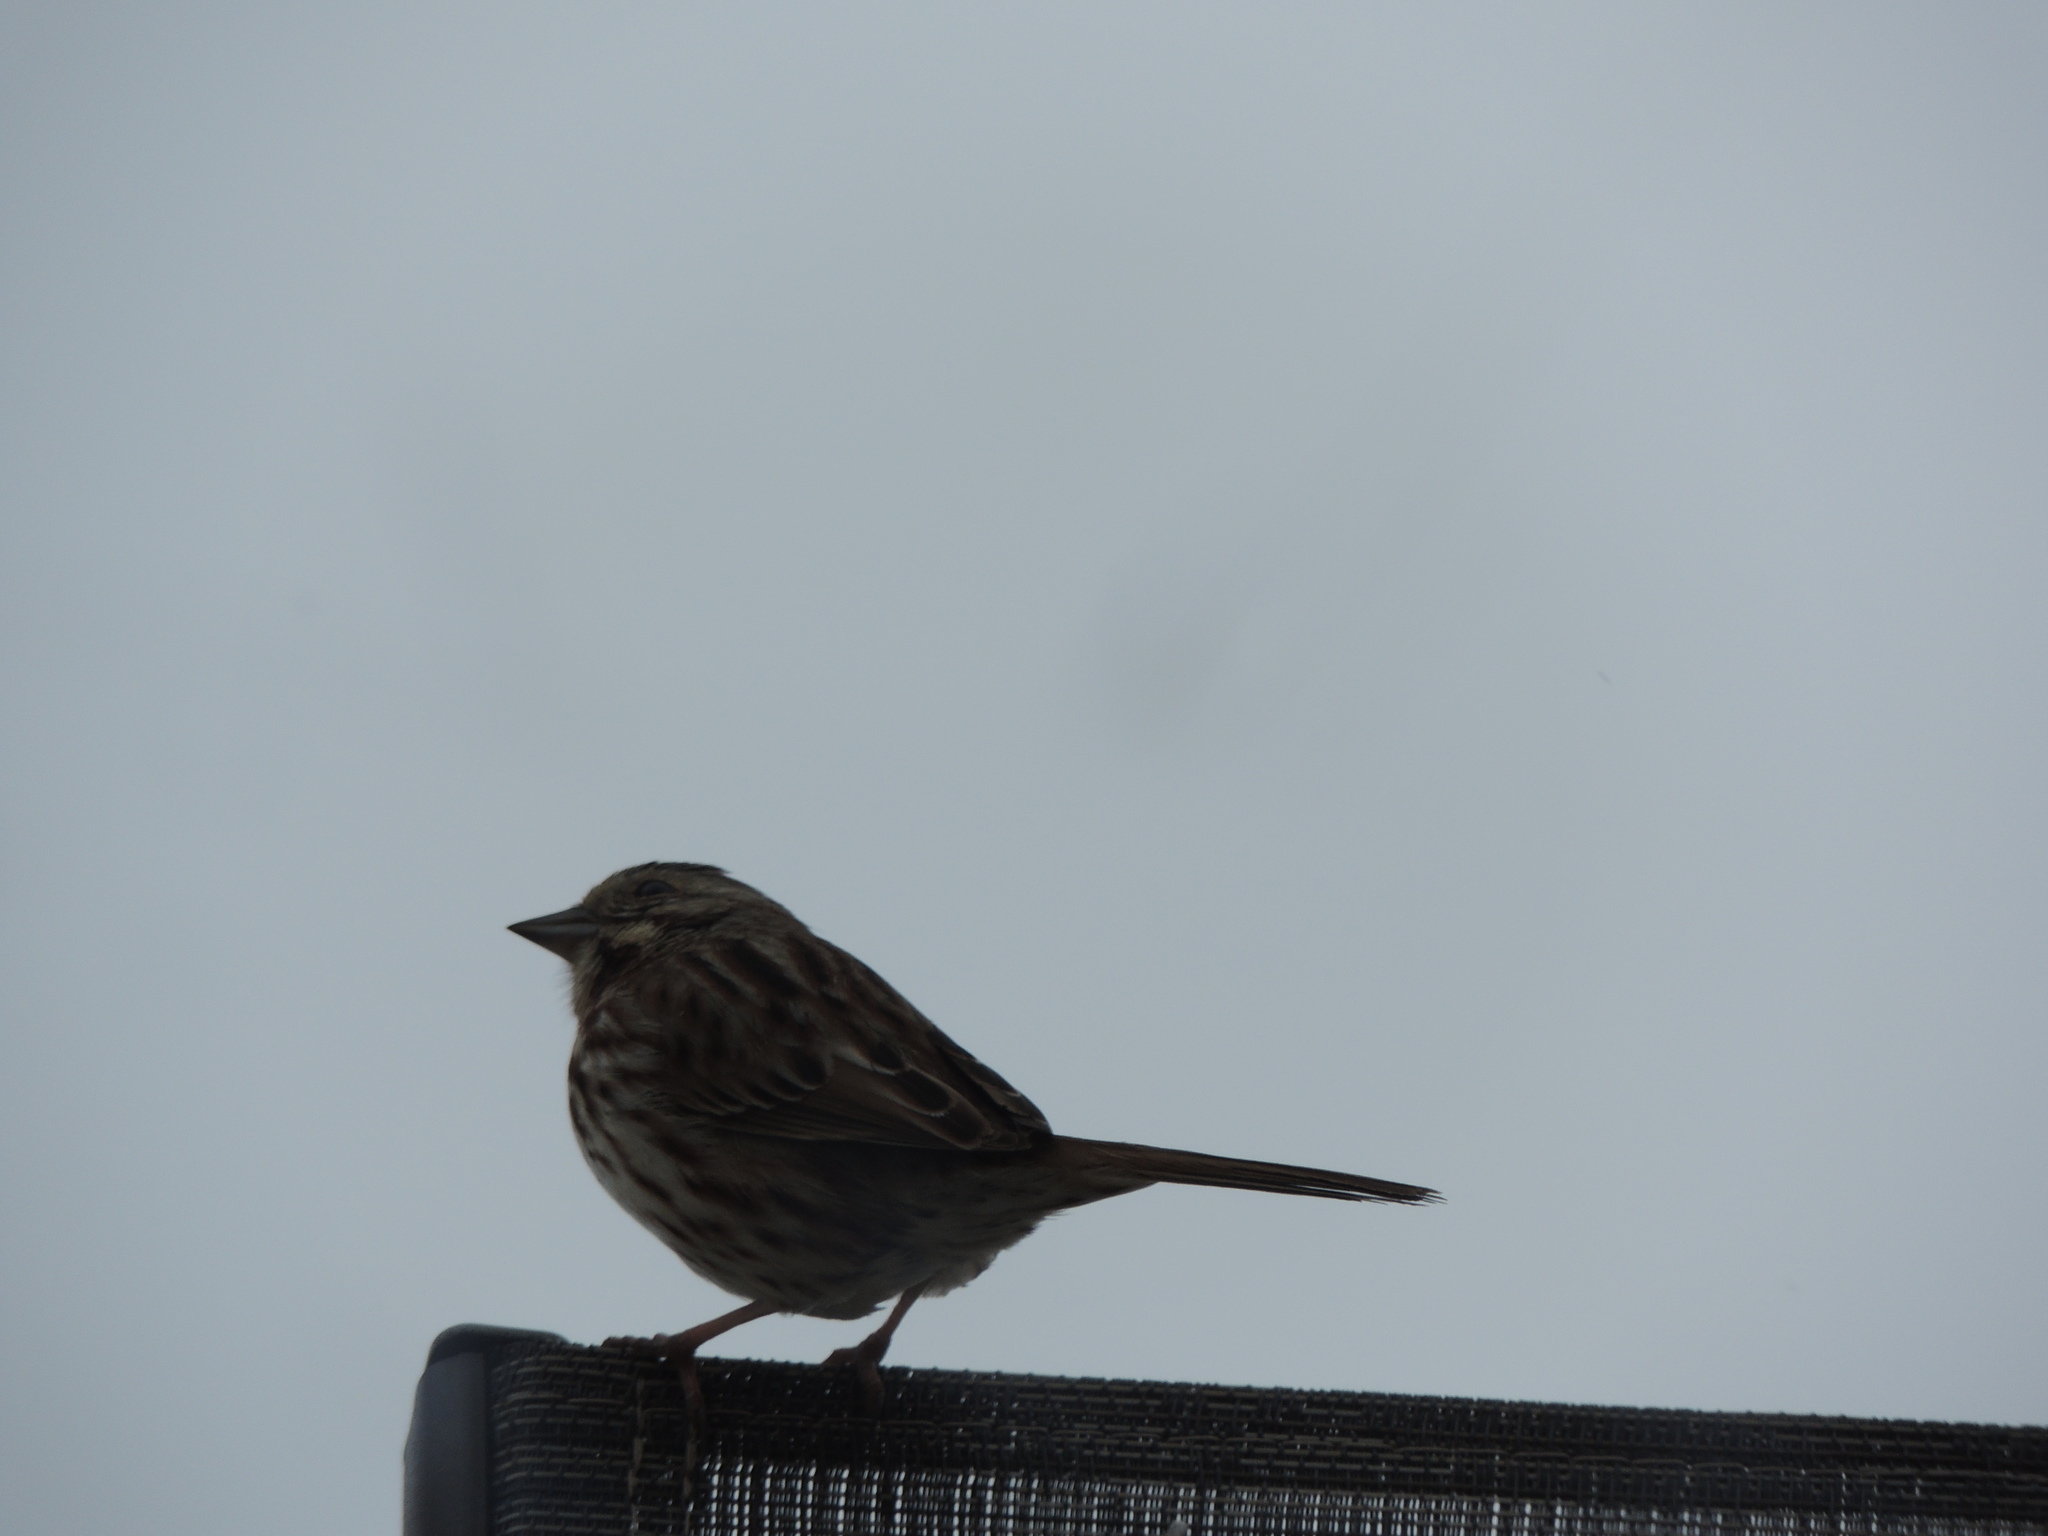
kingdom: Animalia
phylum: Chordata
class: Aves
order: Passeriformes
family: Passerellidae
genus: Melospiza
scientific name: Melospiza melodia
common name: Song sparrow
